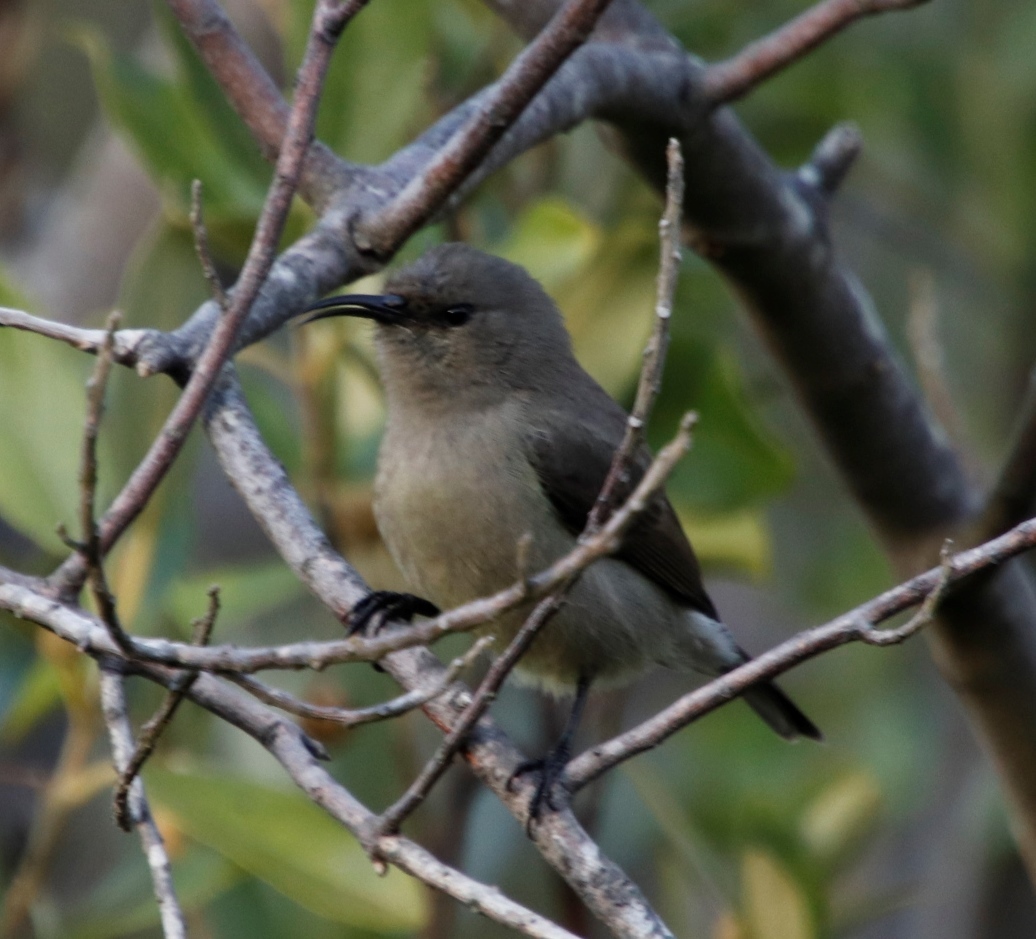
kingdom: Animalia
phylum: Chordata
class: Aves
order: Passeriformes
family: Nectariniidae
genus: Cinnyris
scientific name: Cinnyris chalybeus
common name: Southern double-collared sunbird
